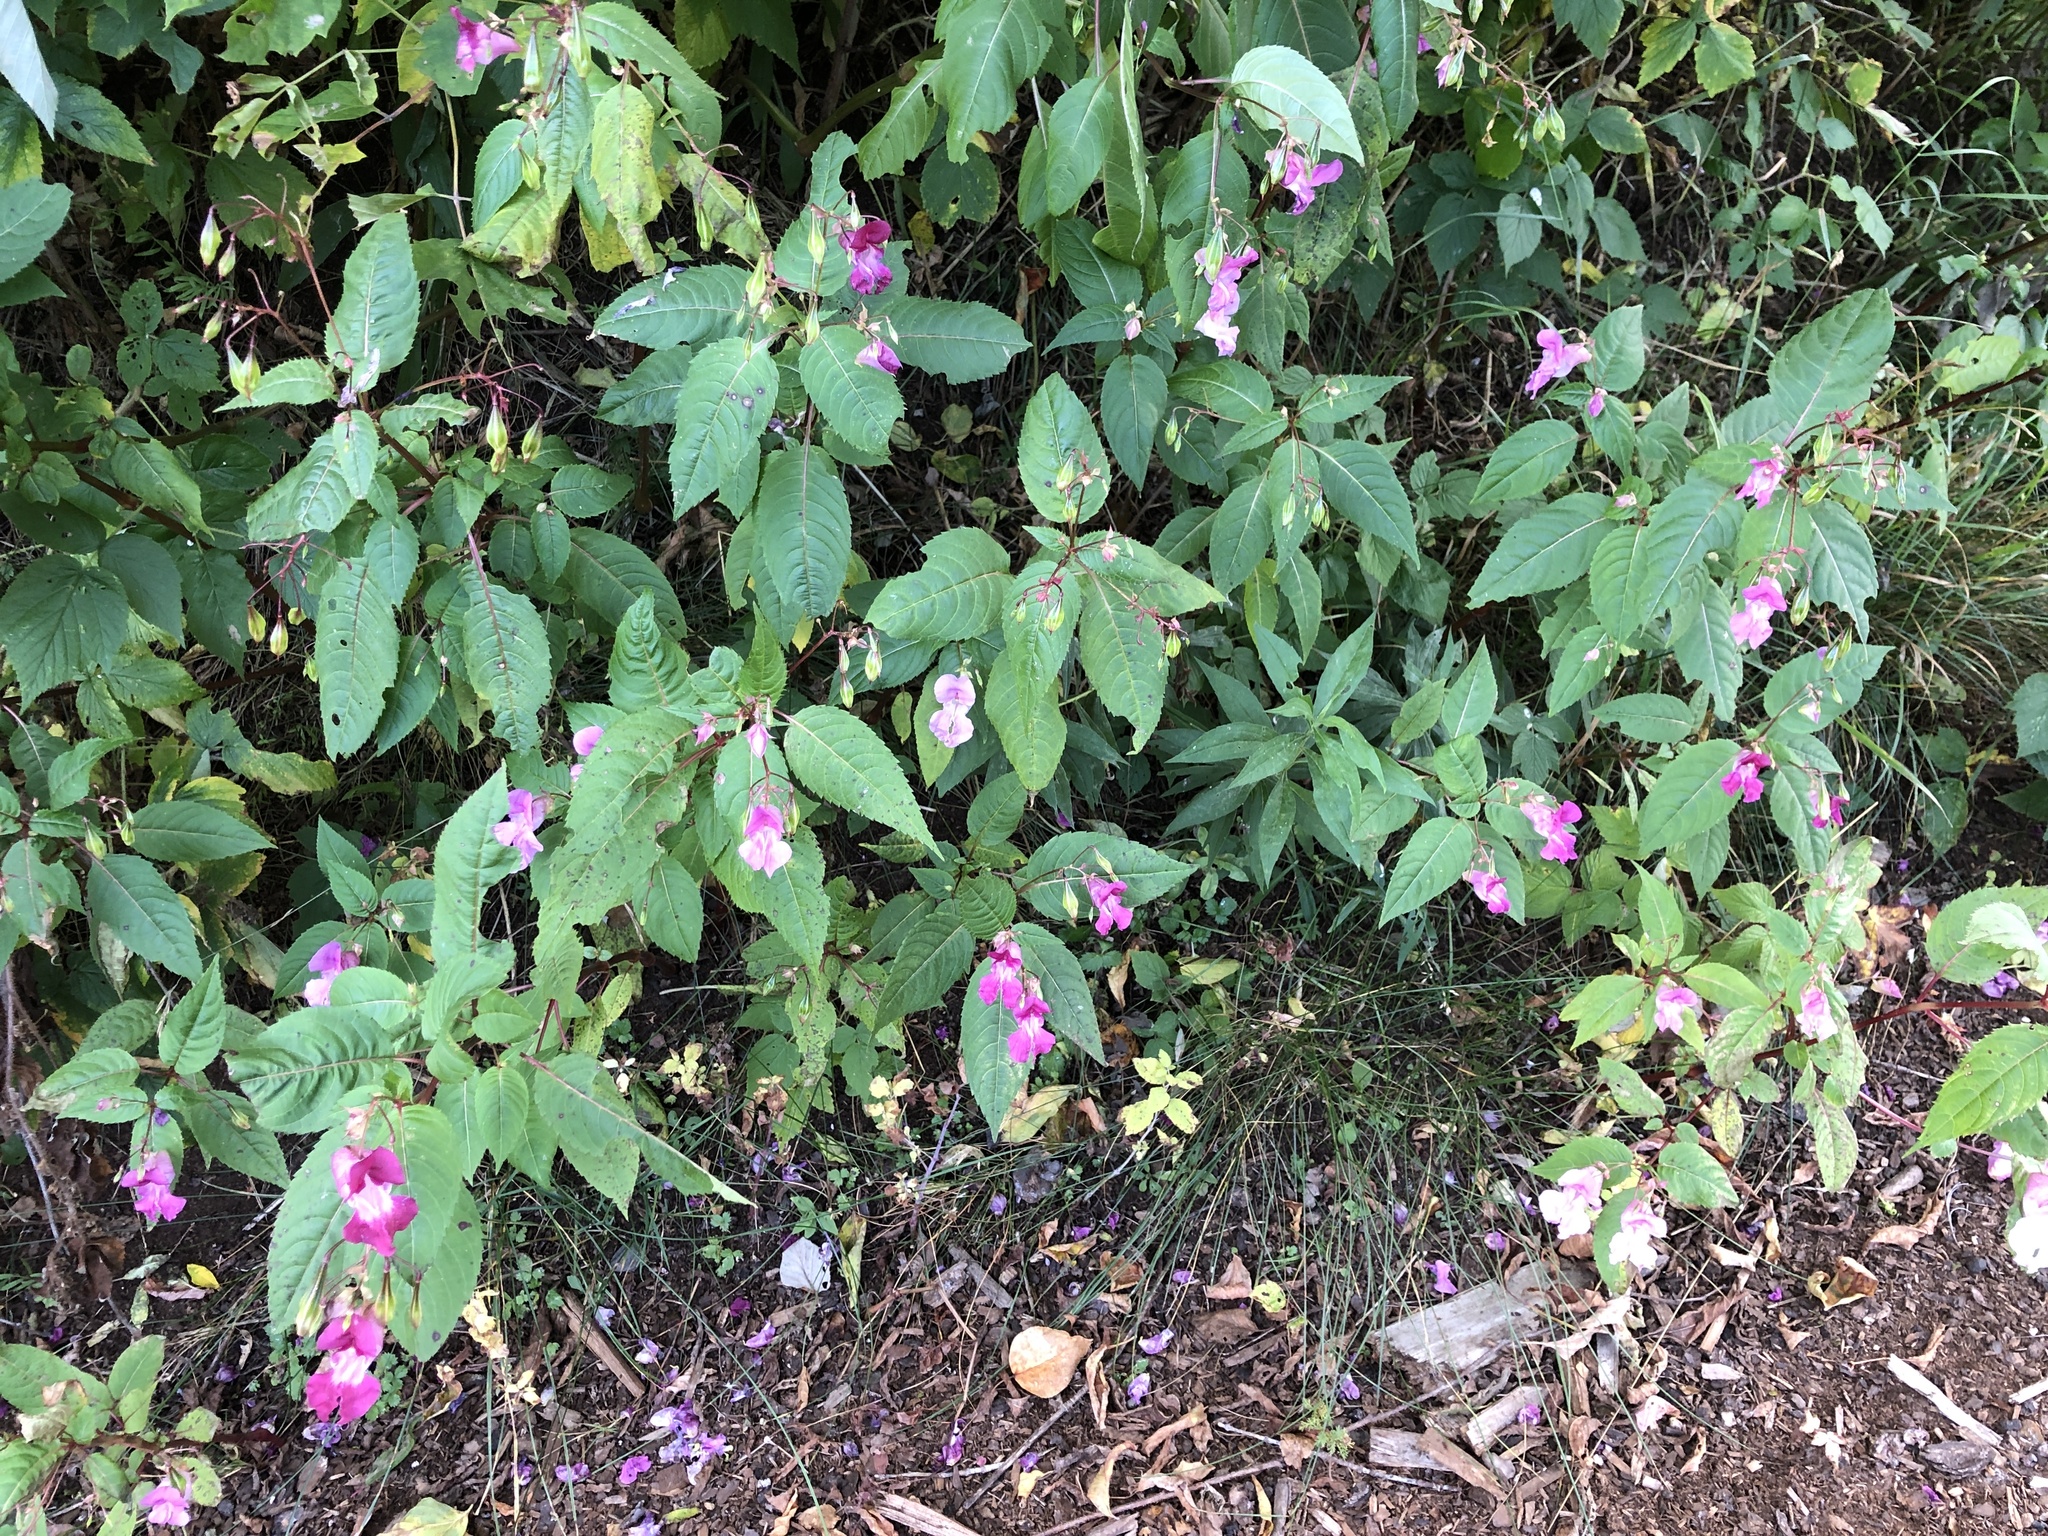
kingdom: Plantae
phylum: Tracheophyta
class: Magnoliopsida
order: Ericales
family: Balsaminaceae
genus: Impatiens
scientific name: Impatiens glandulifera
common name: Himalayan balsam
